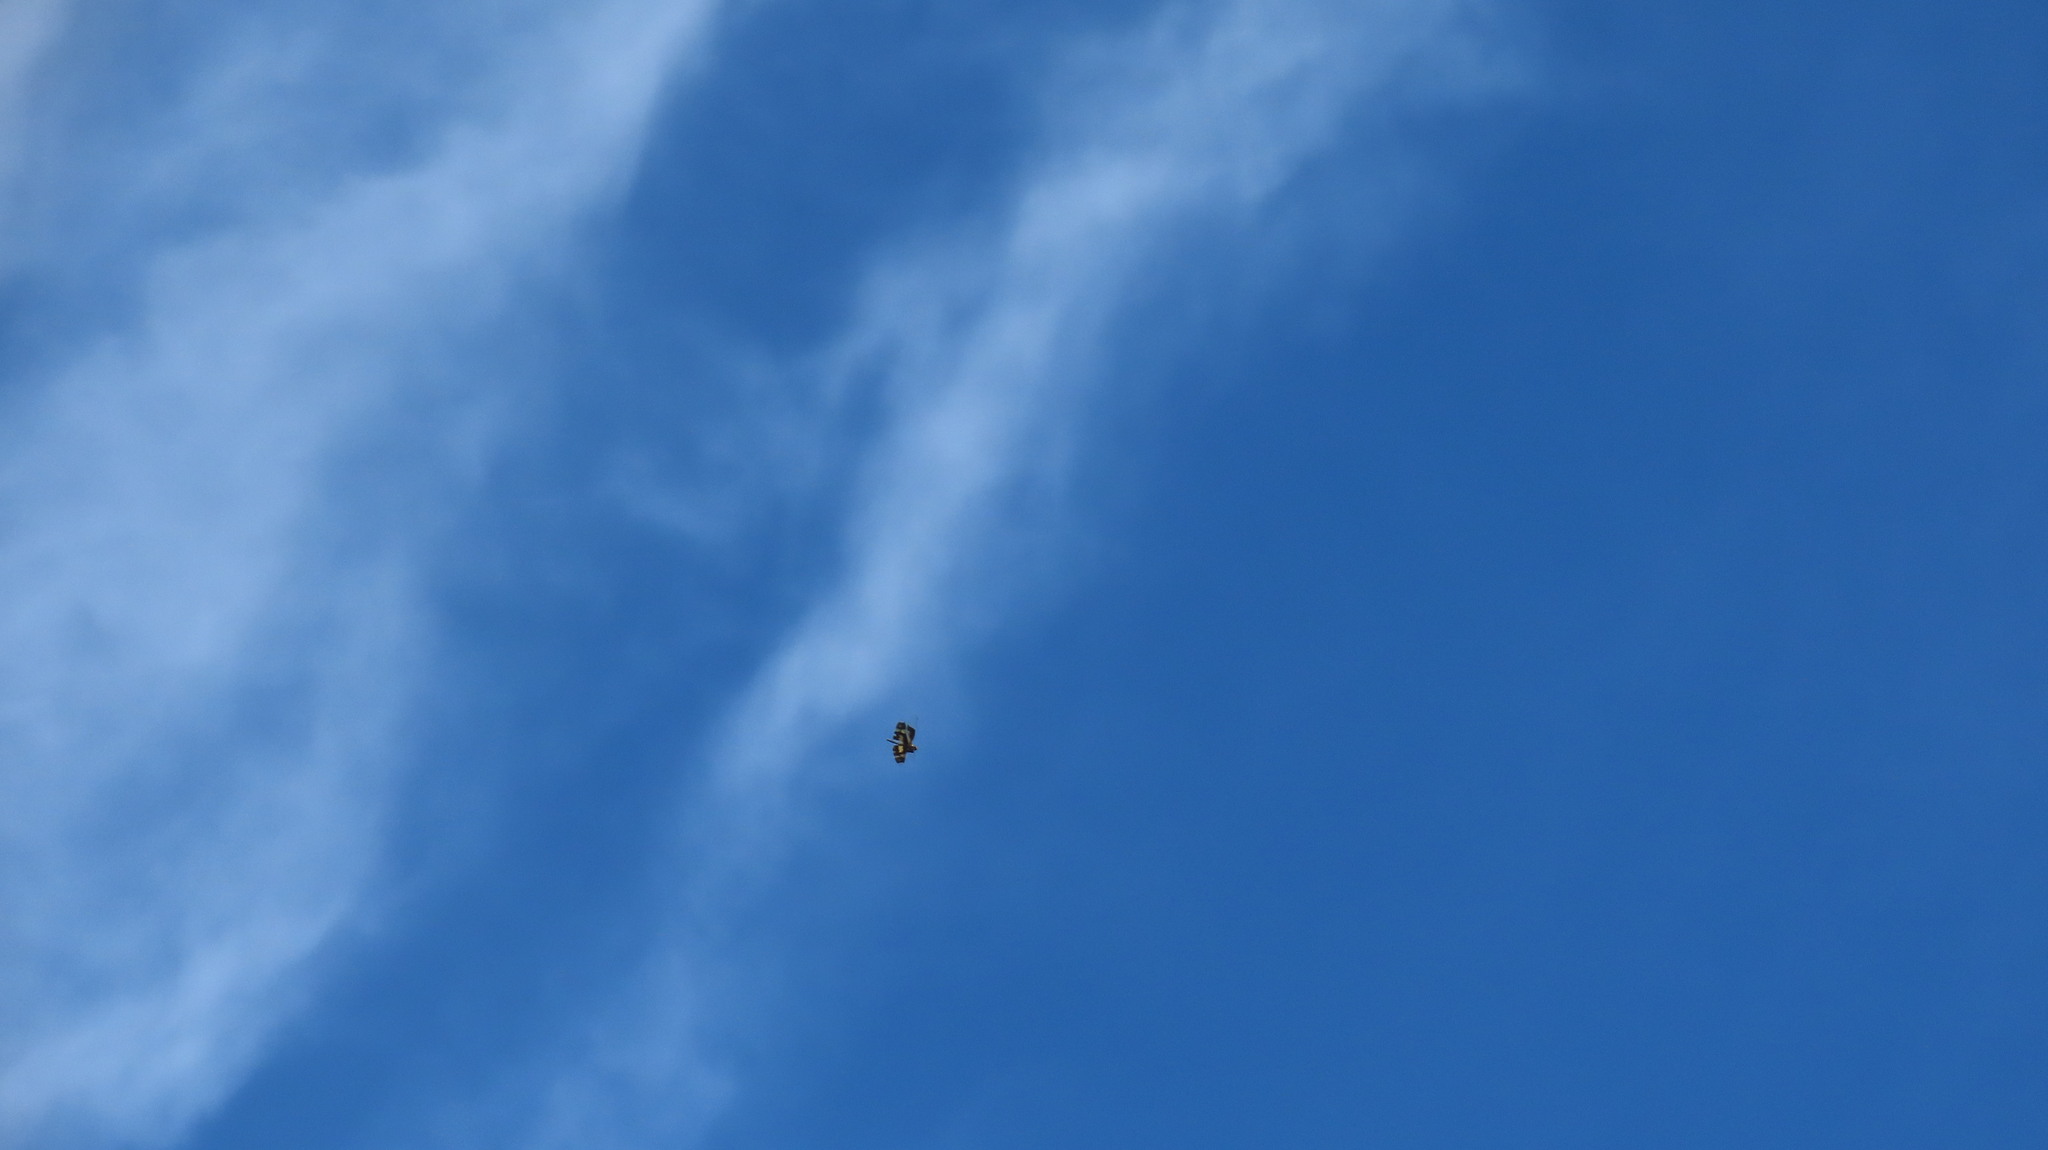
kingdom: Animalia
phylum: Arthropoda
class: Insecta
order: Odonata
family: Libellulidae
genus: Rhyothemis
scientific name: Rhyothemis variegata
